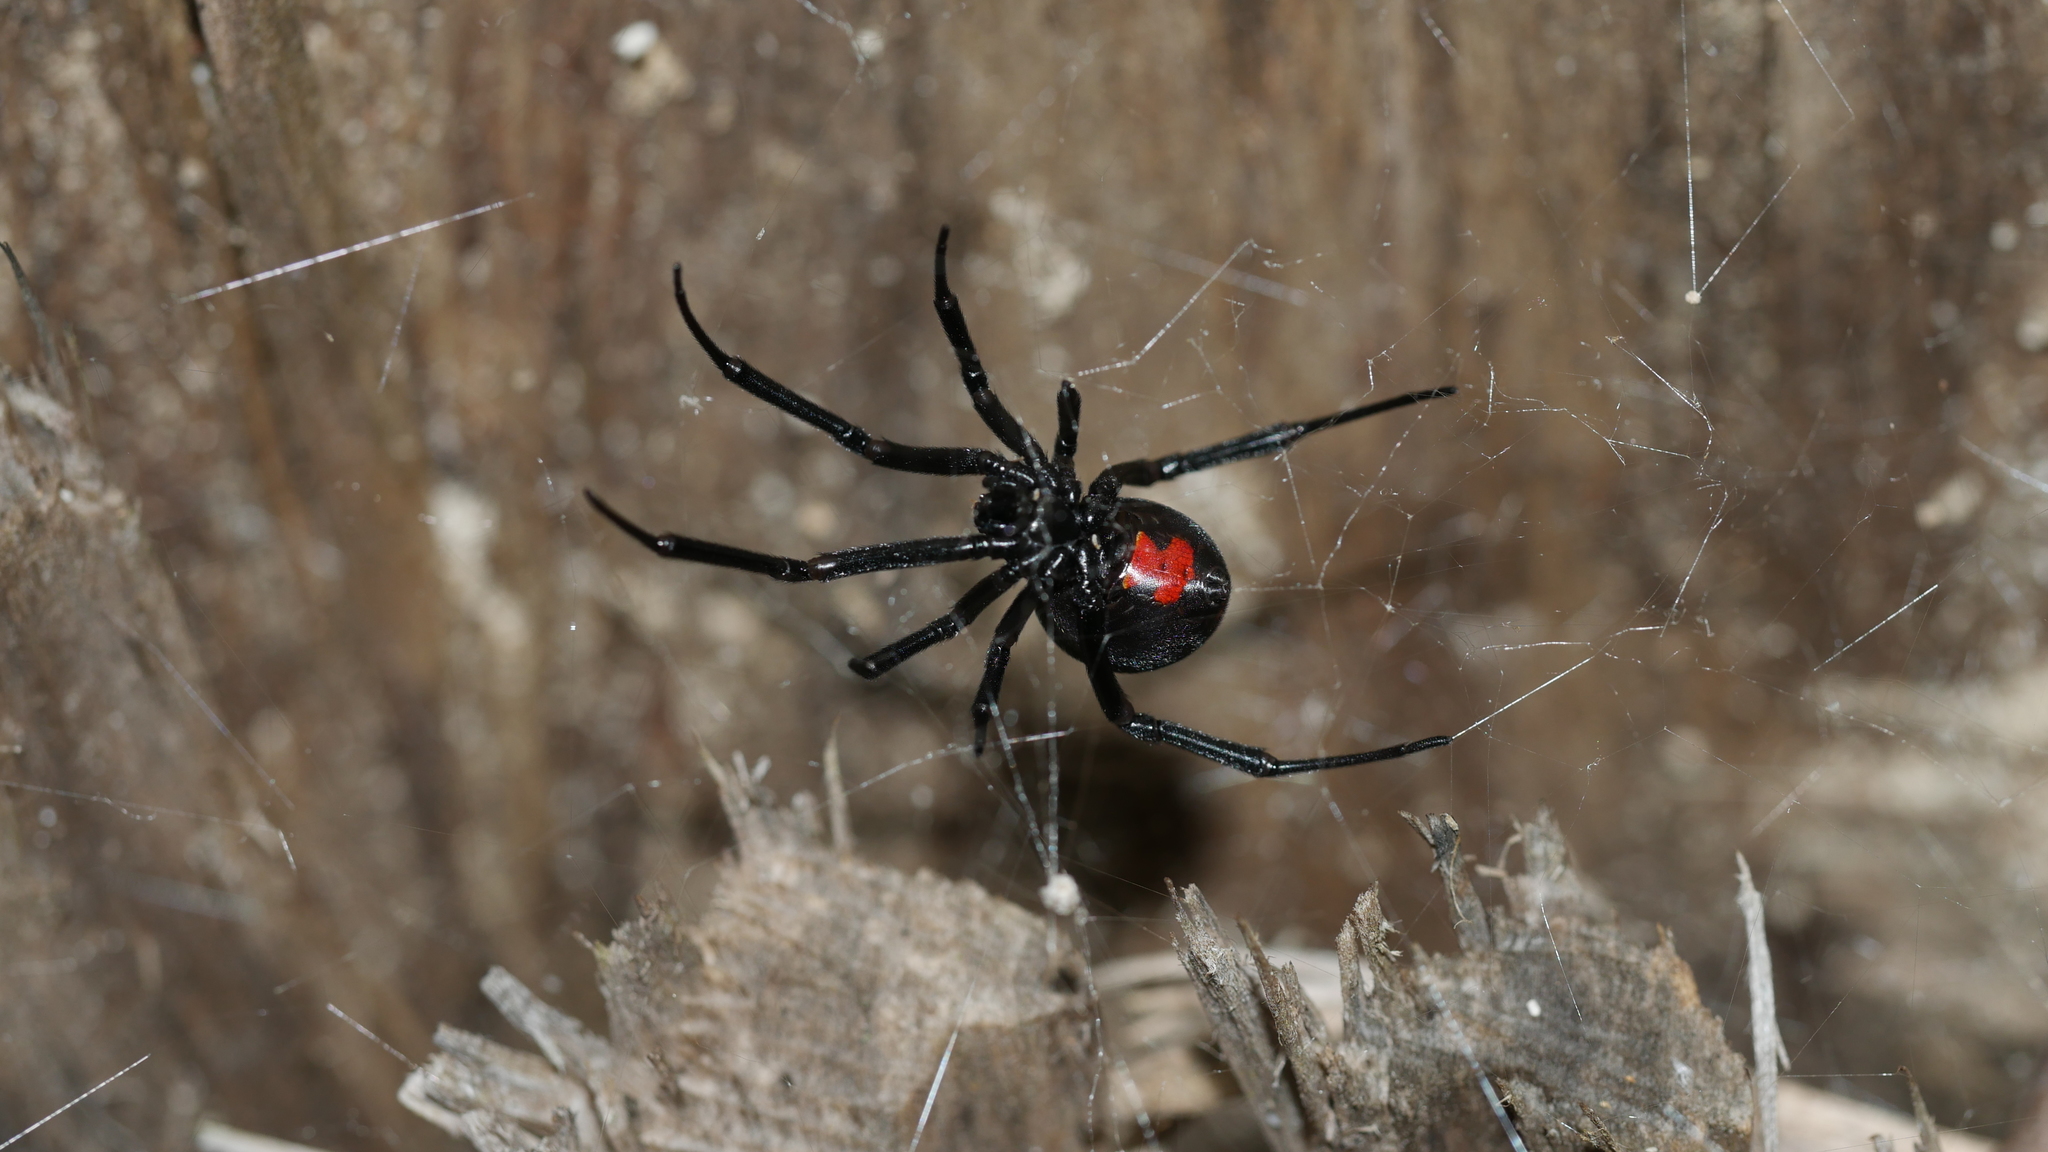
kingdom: Animalia
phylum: Arthropoda
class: Arachnida
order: Araneae
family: Theridiidae
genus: Latrodectus
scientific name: Latrodectus mactans
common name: Cobweb spiders
